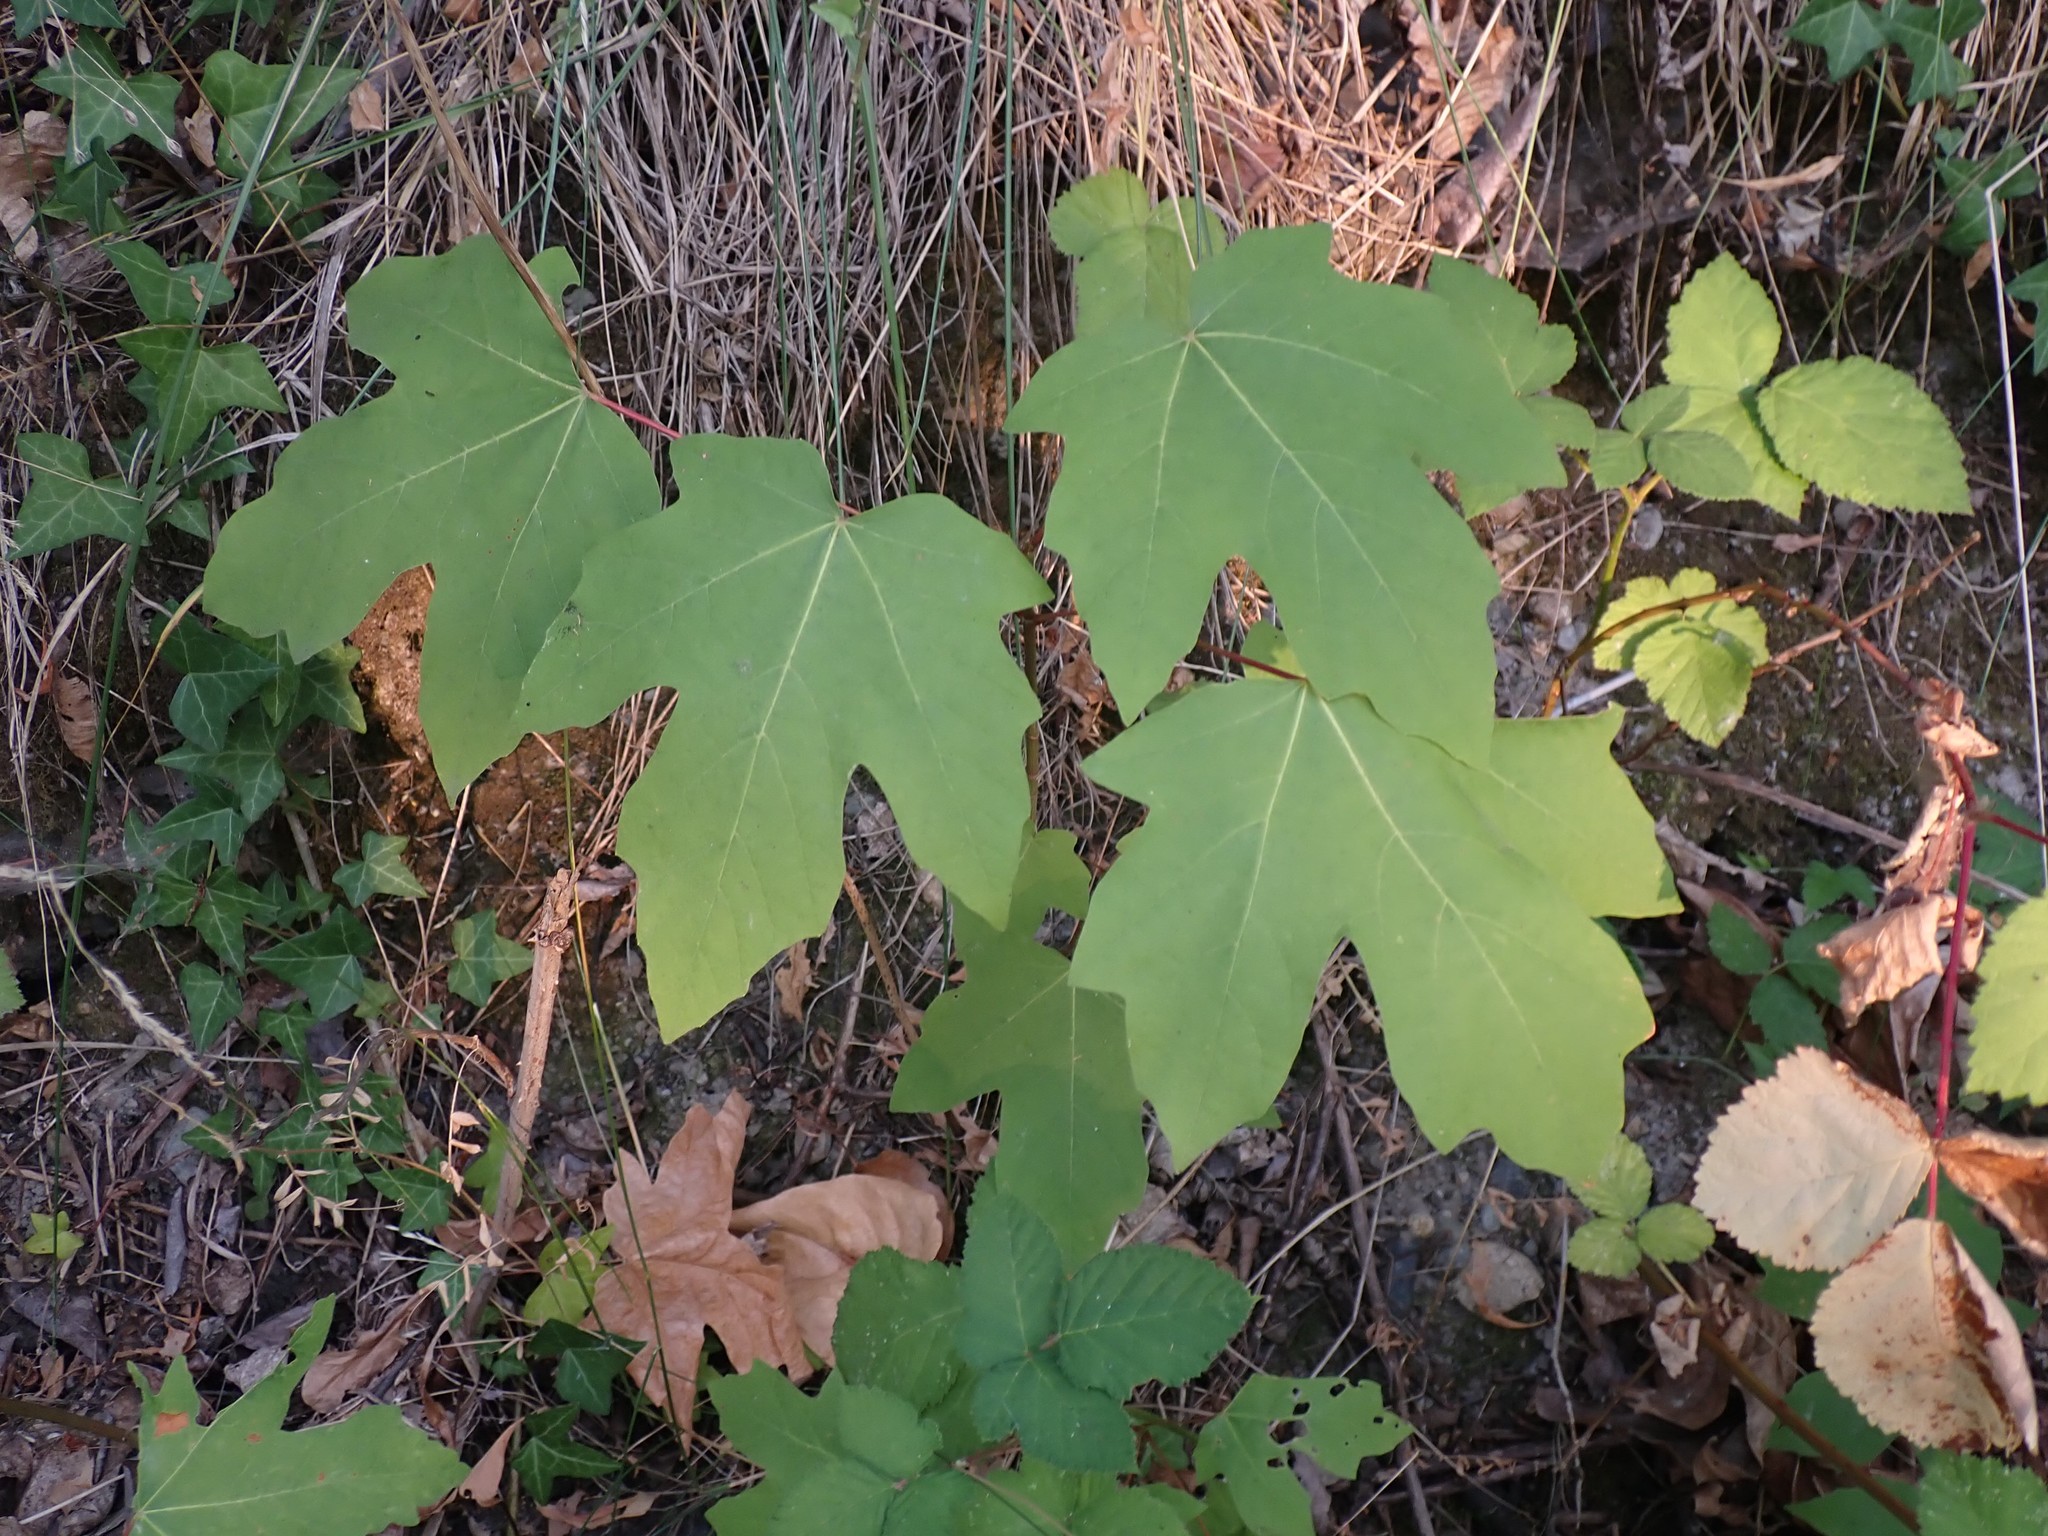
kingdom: Plantae
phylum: Tracheophyta
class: Magnoliopsida
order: Sapindales
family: Sapindaceae
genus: Acer
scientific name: Acer macrophyllum
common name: Oregon maple
